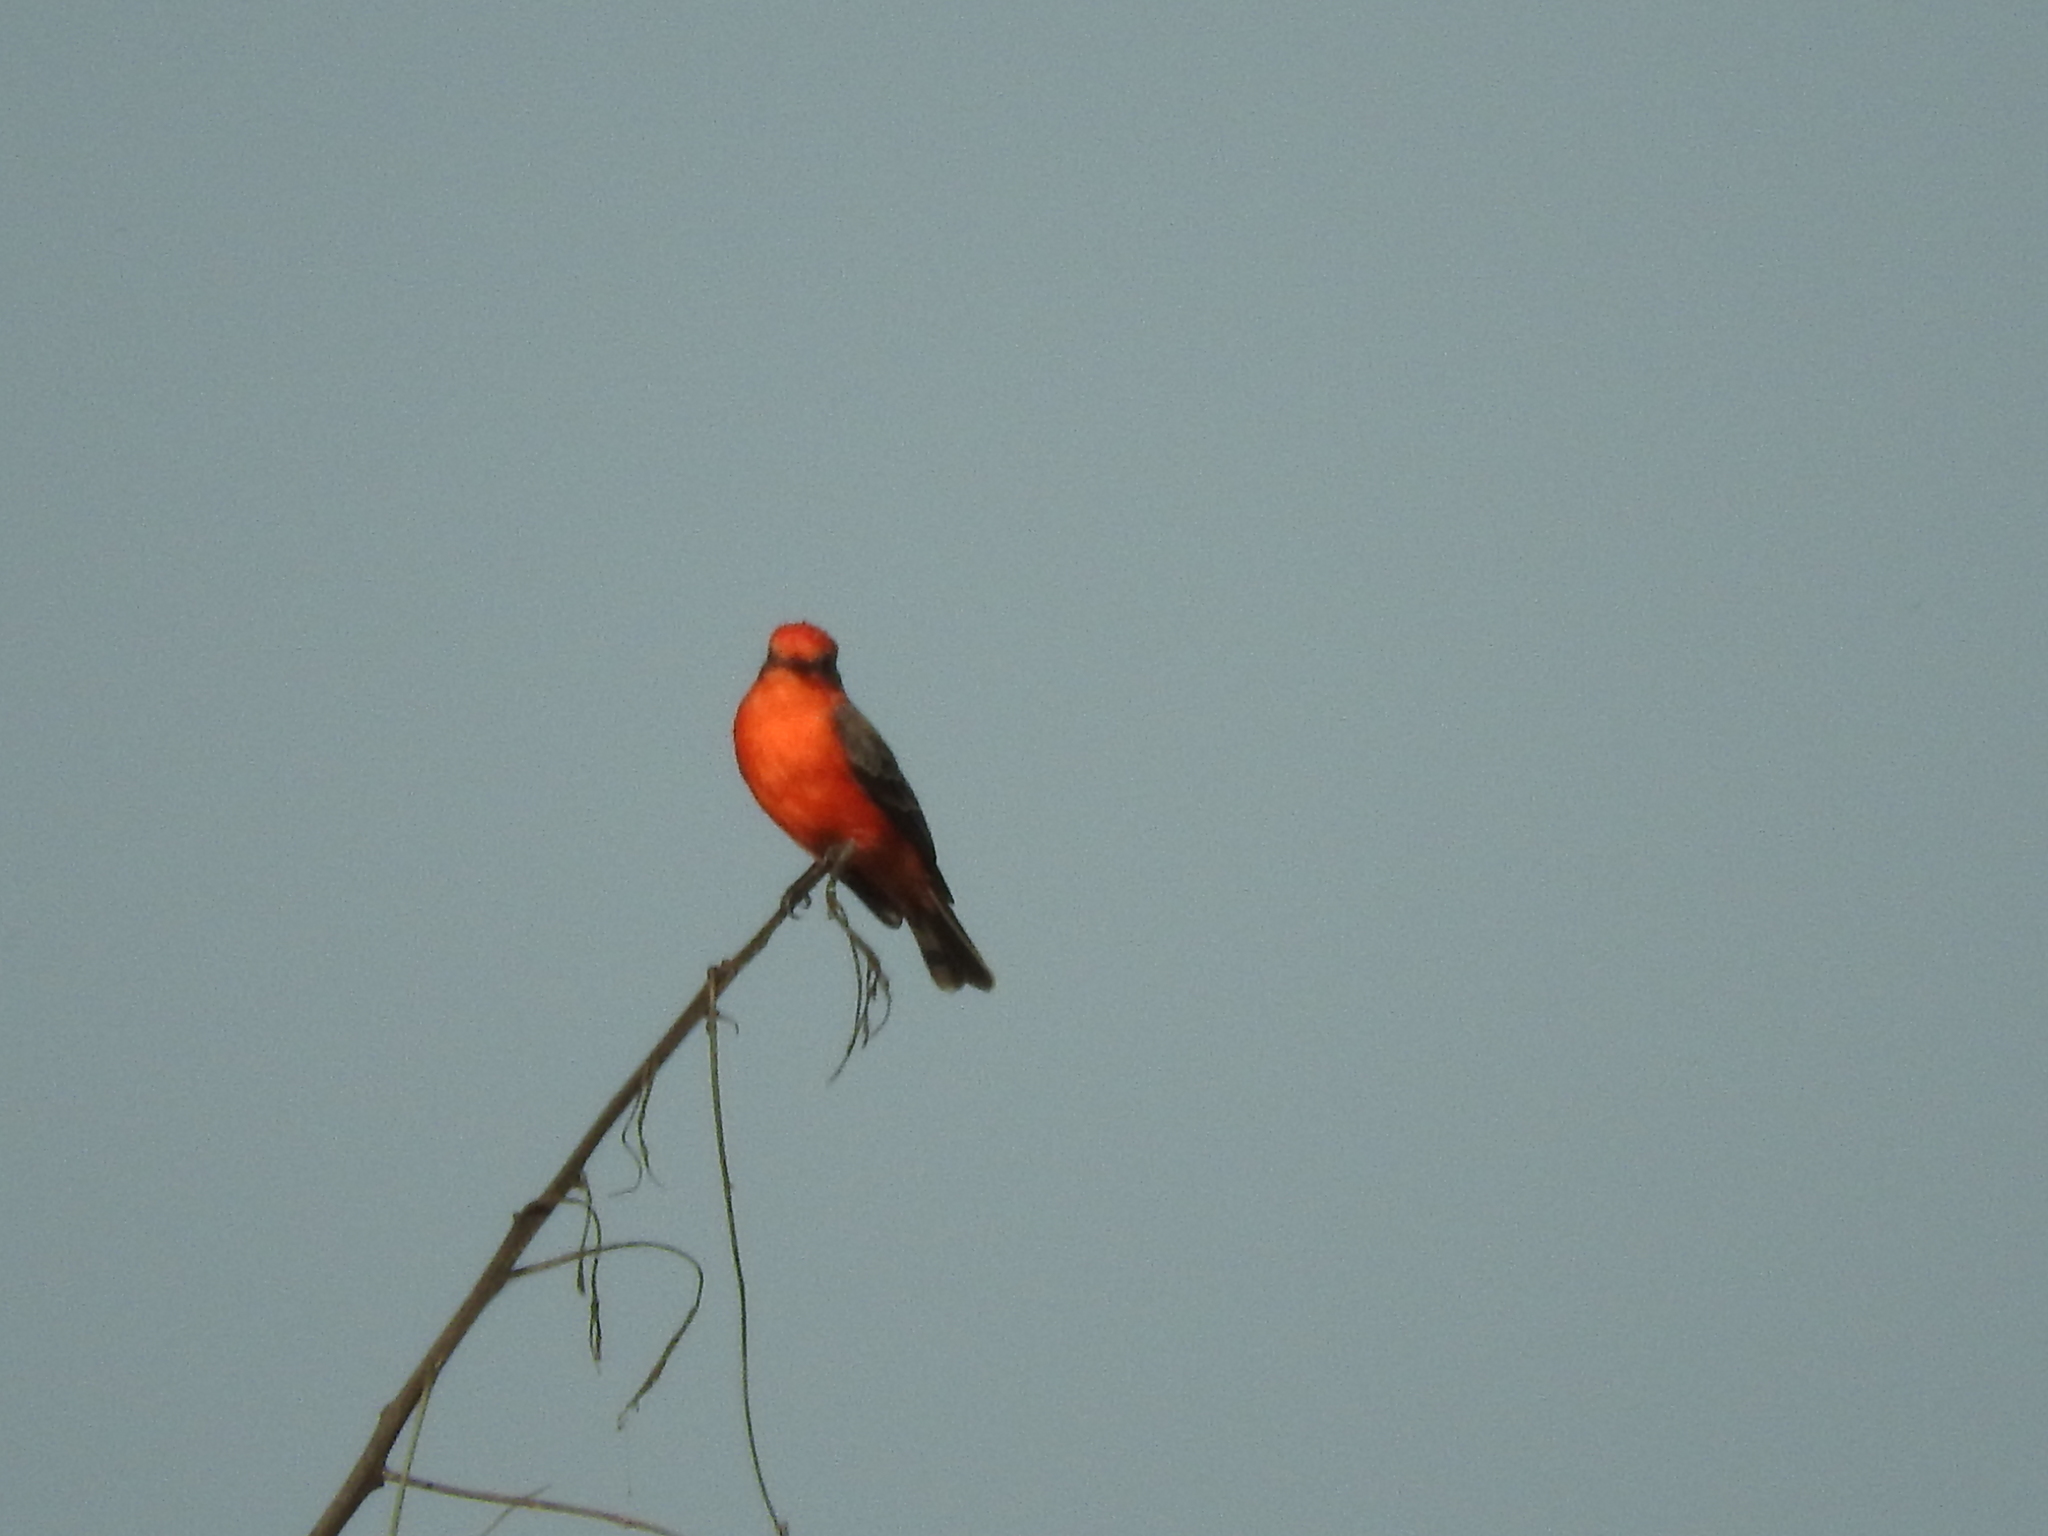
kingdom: Animalia
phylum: Chordata
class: Aves
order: Passeriformes
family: Tyrannidae
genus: Pyrocephalus
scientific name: Pyrocephalus rubinus
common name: Vermilion flycatcher
